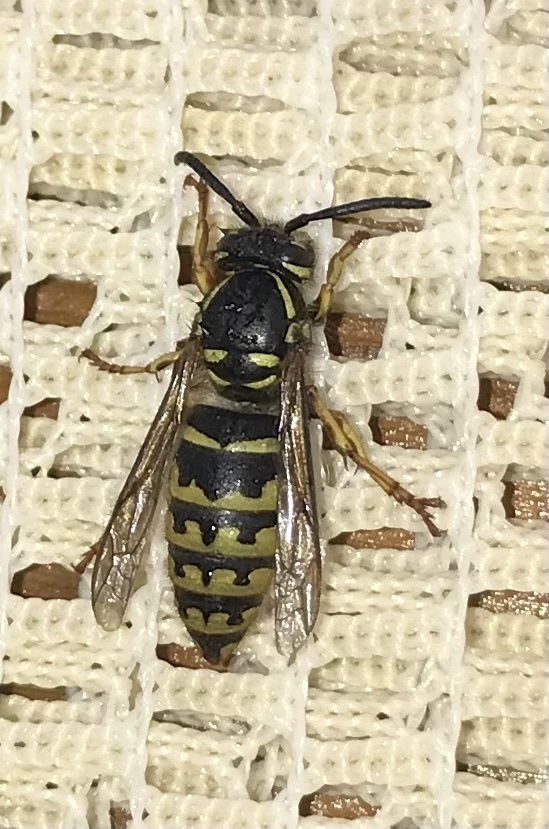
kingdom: Animalia
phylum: Arthropoda
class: Insecta
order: Hymenoptera
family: Vespidae
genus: Vespula
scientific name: Vespula alascensis
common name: Alaska yellowjacket
